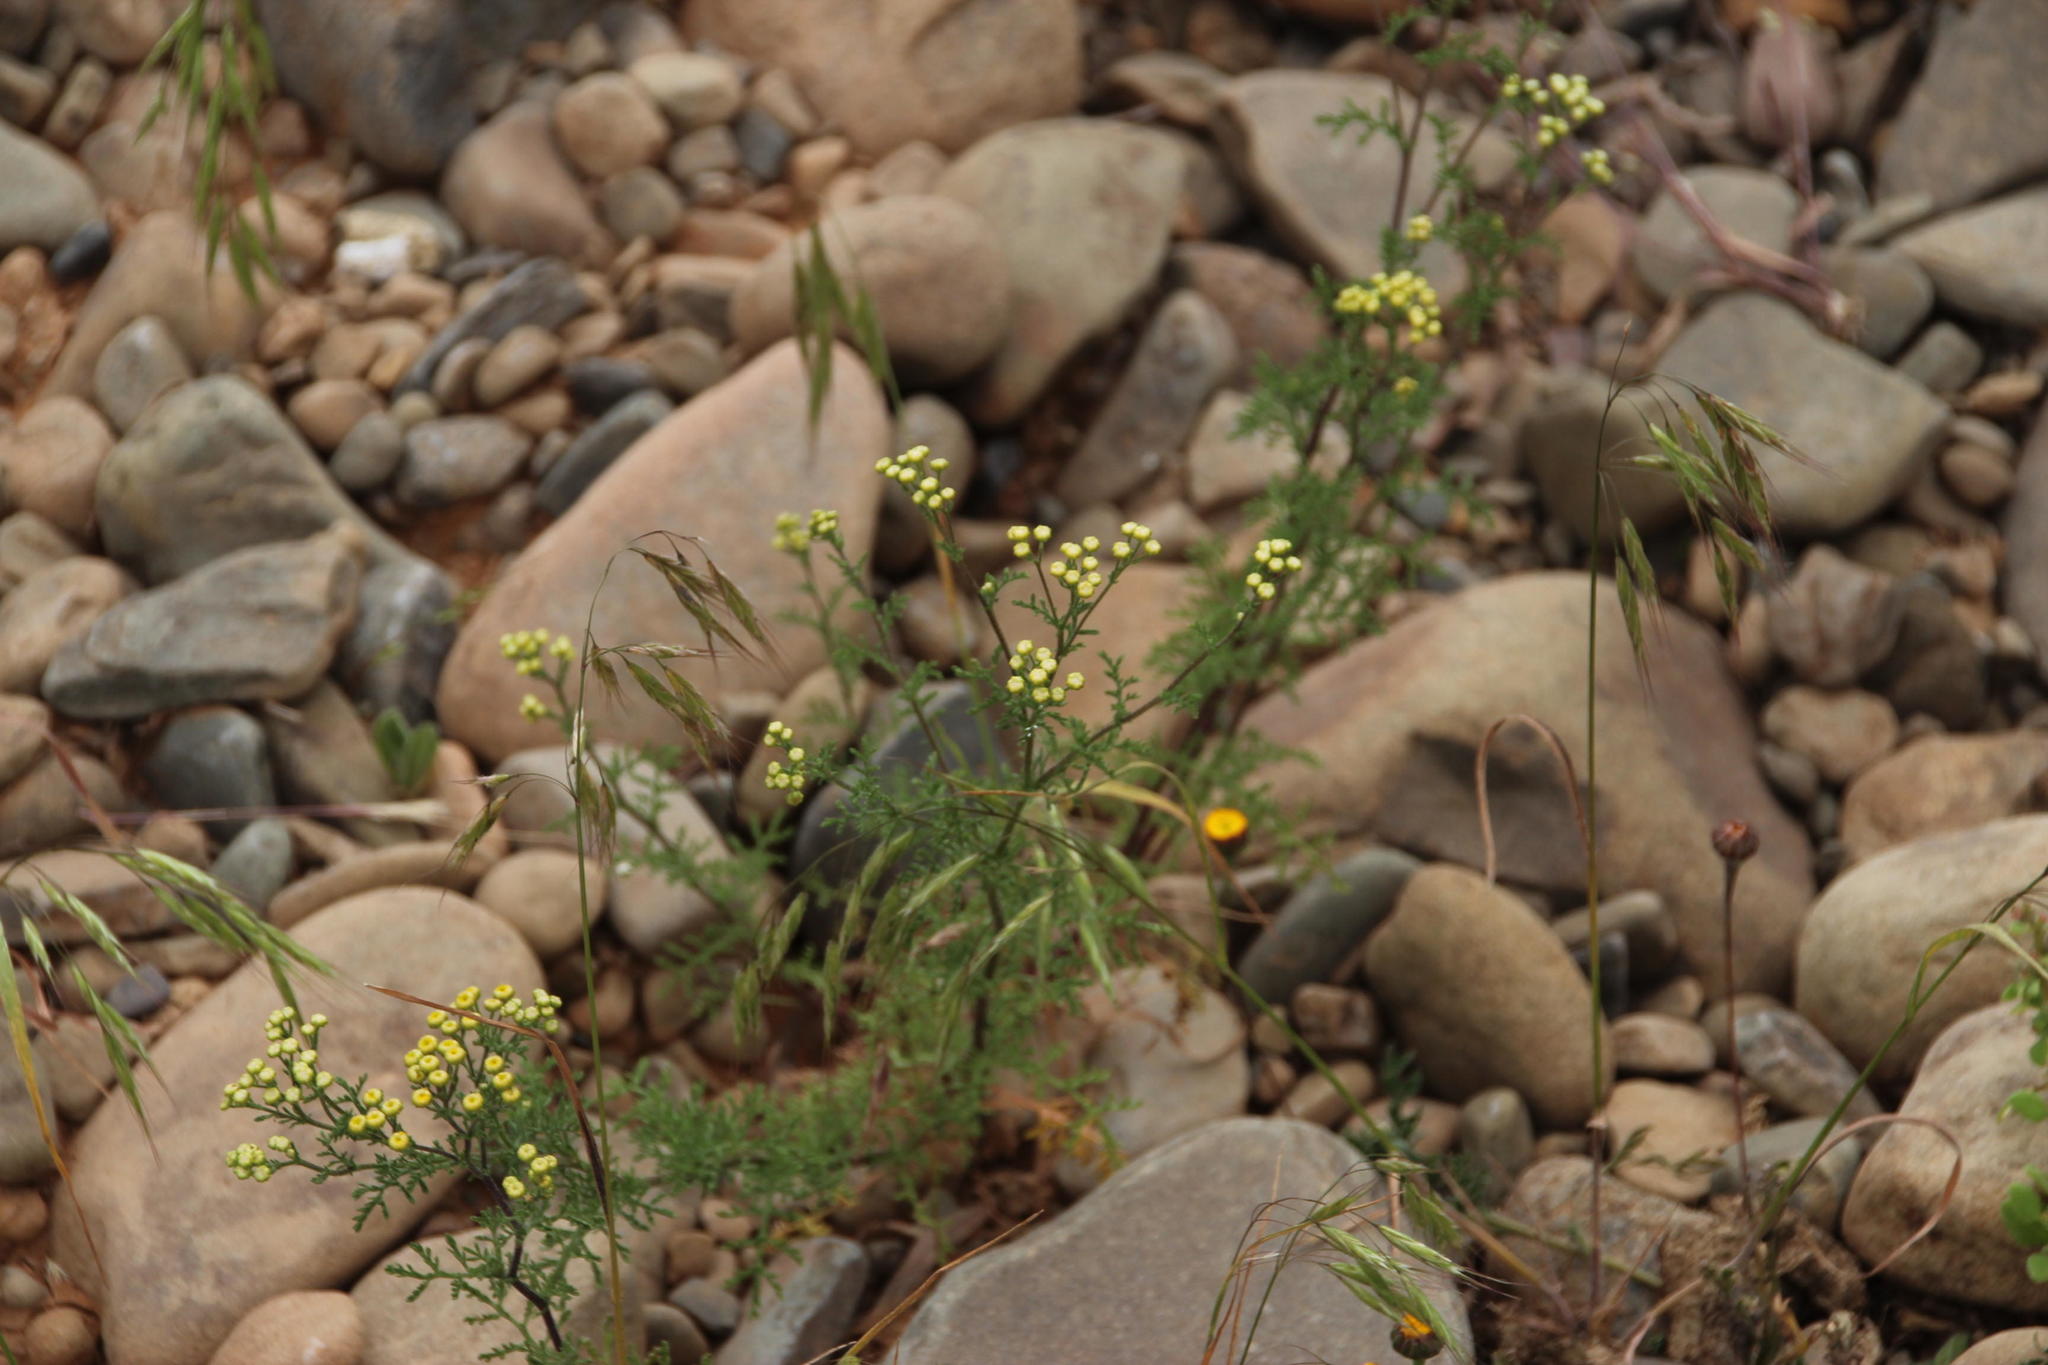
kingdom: Plantae
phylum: Tracheophyta
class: Magnoliopsida
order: Asterales
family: Asteraceae
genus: Oncosiphon
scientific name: Oncosiphon suffruticosus
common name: Shrubby mayweed
